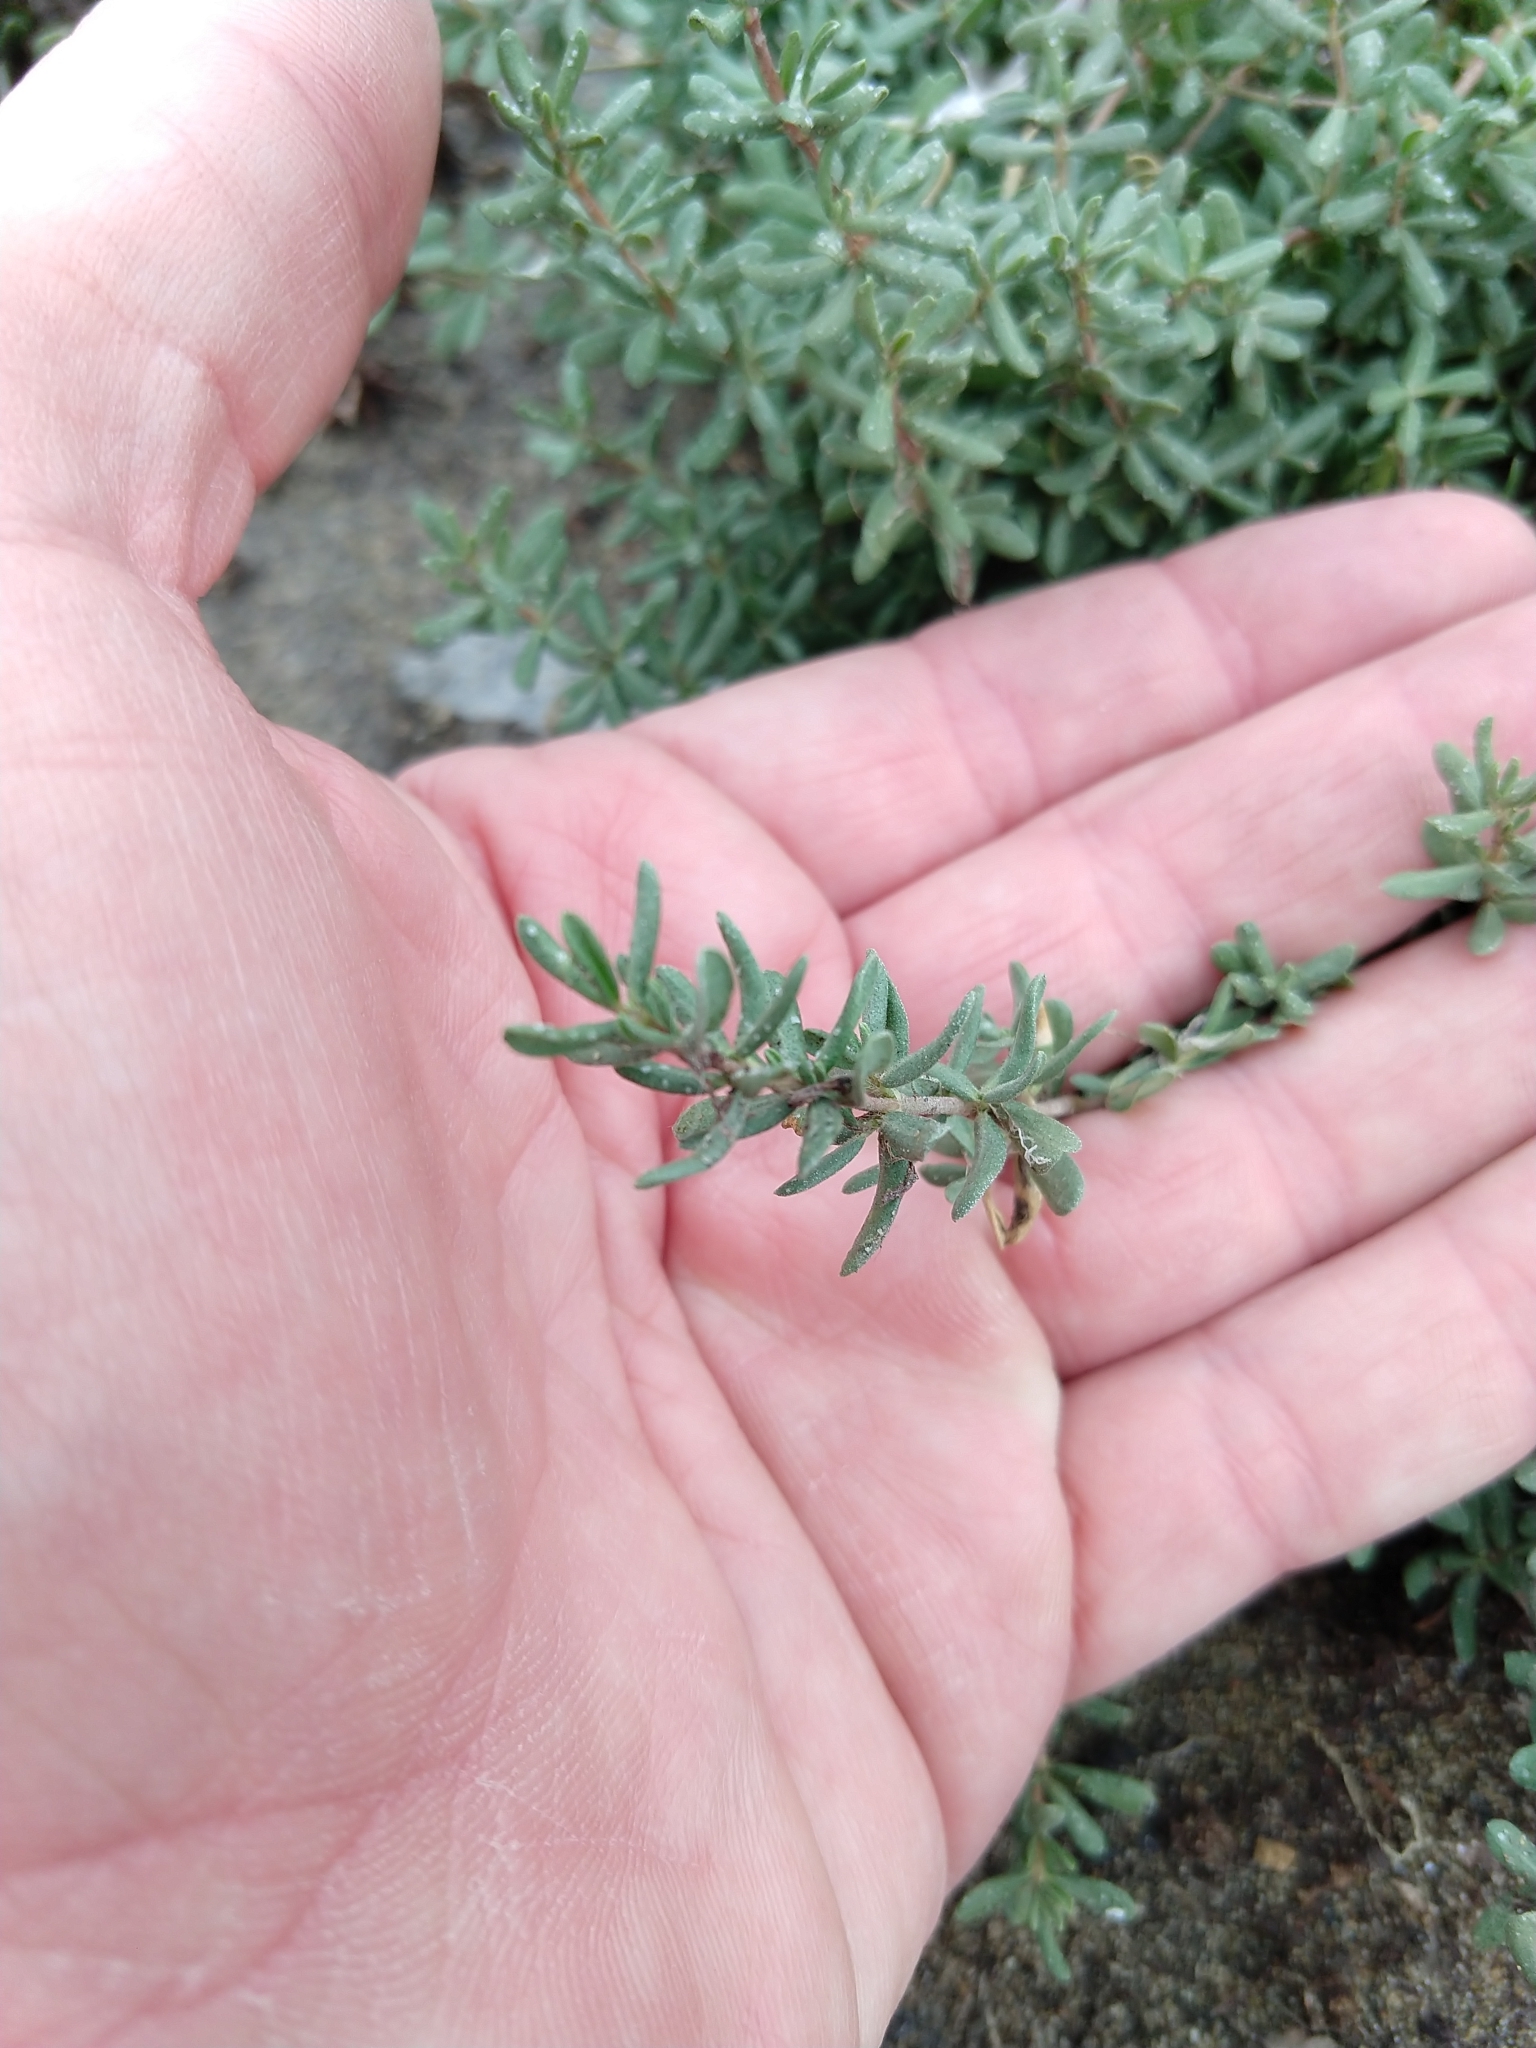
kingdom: Plantae
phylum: Tracheophyta
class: Magnoliopsida
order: Caryophyllales
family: Frankeniaceae
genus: Frankenia
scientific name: Frankenia salina
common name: Alkali seaheath
